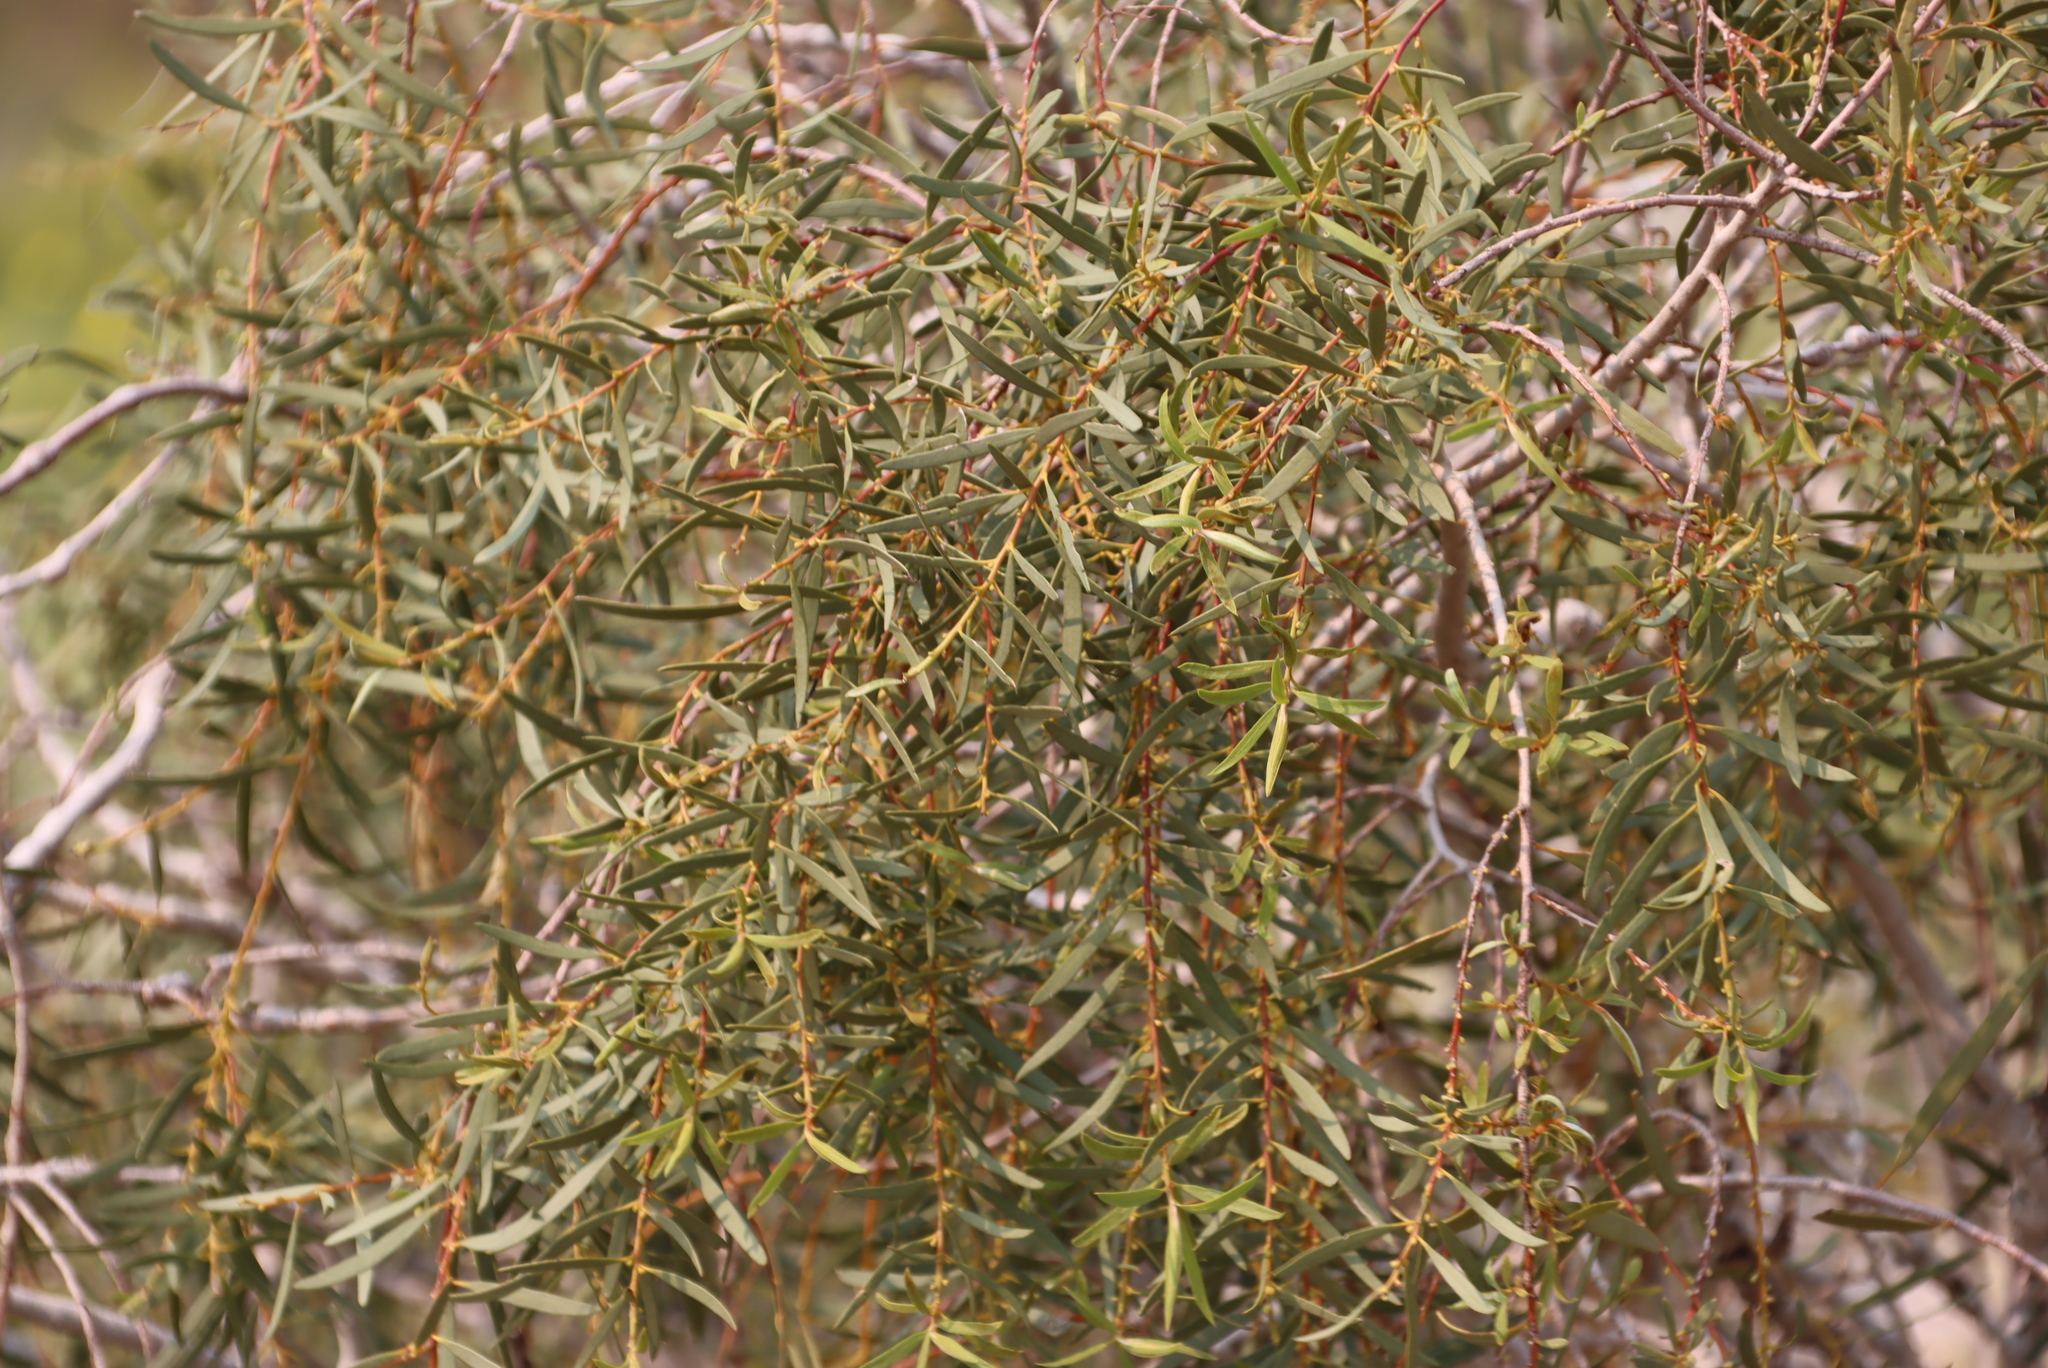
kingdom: Plantae
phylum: Tracheophyta
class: Magnoliopsida
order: Ericales
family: Ebenaceae
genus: Euclea
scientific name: Euclea pseudebenus
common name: Black ebony
